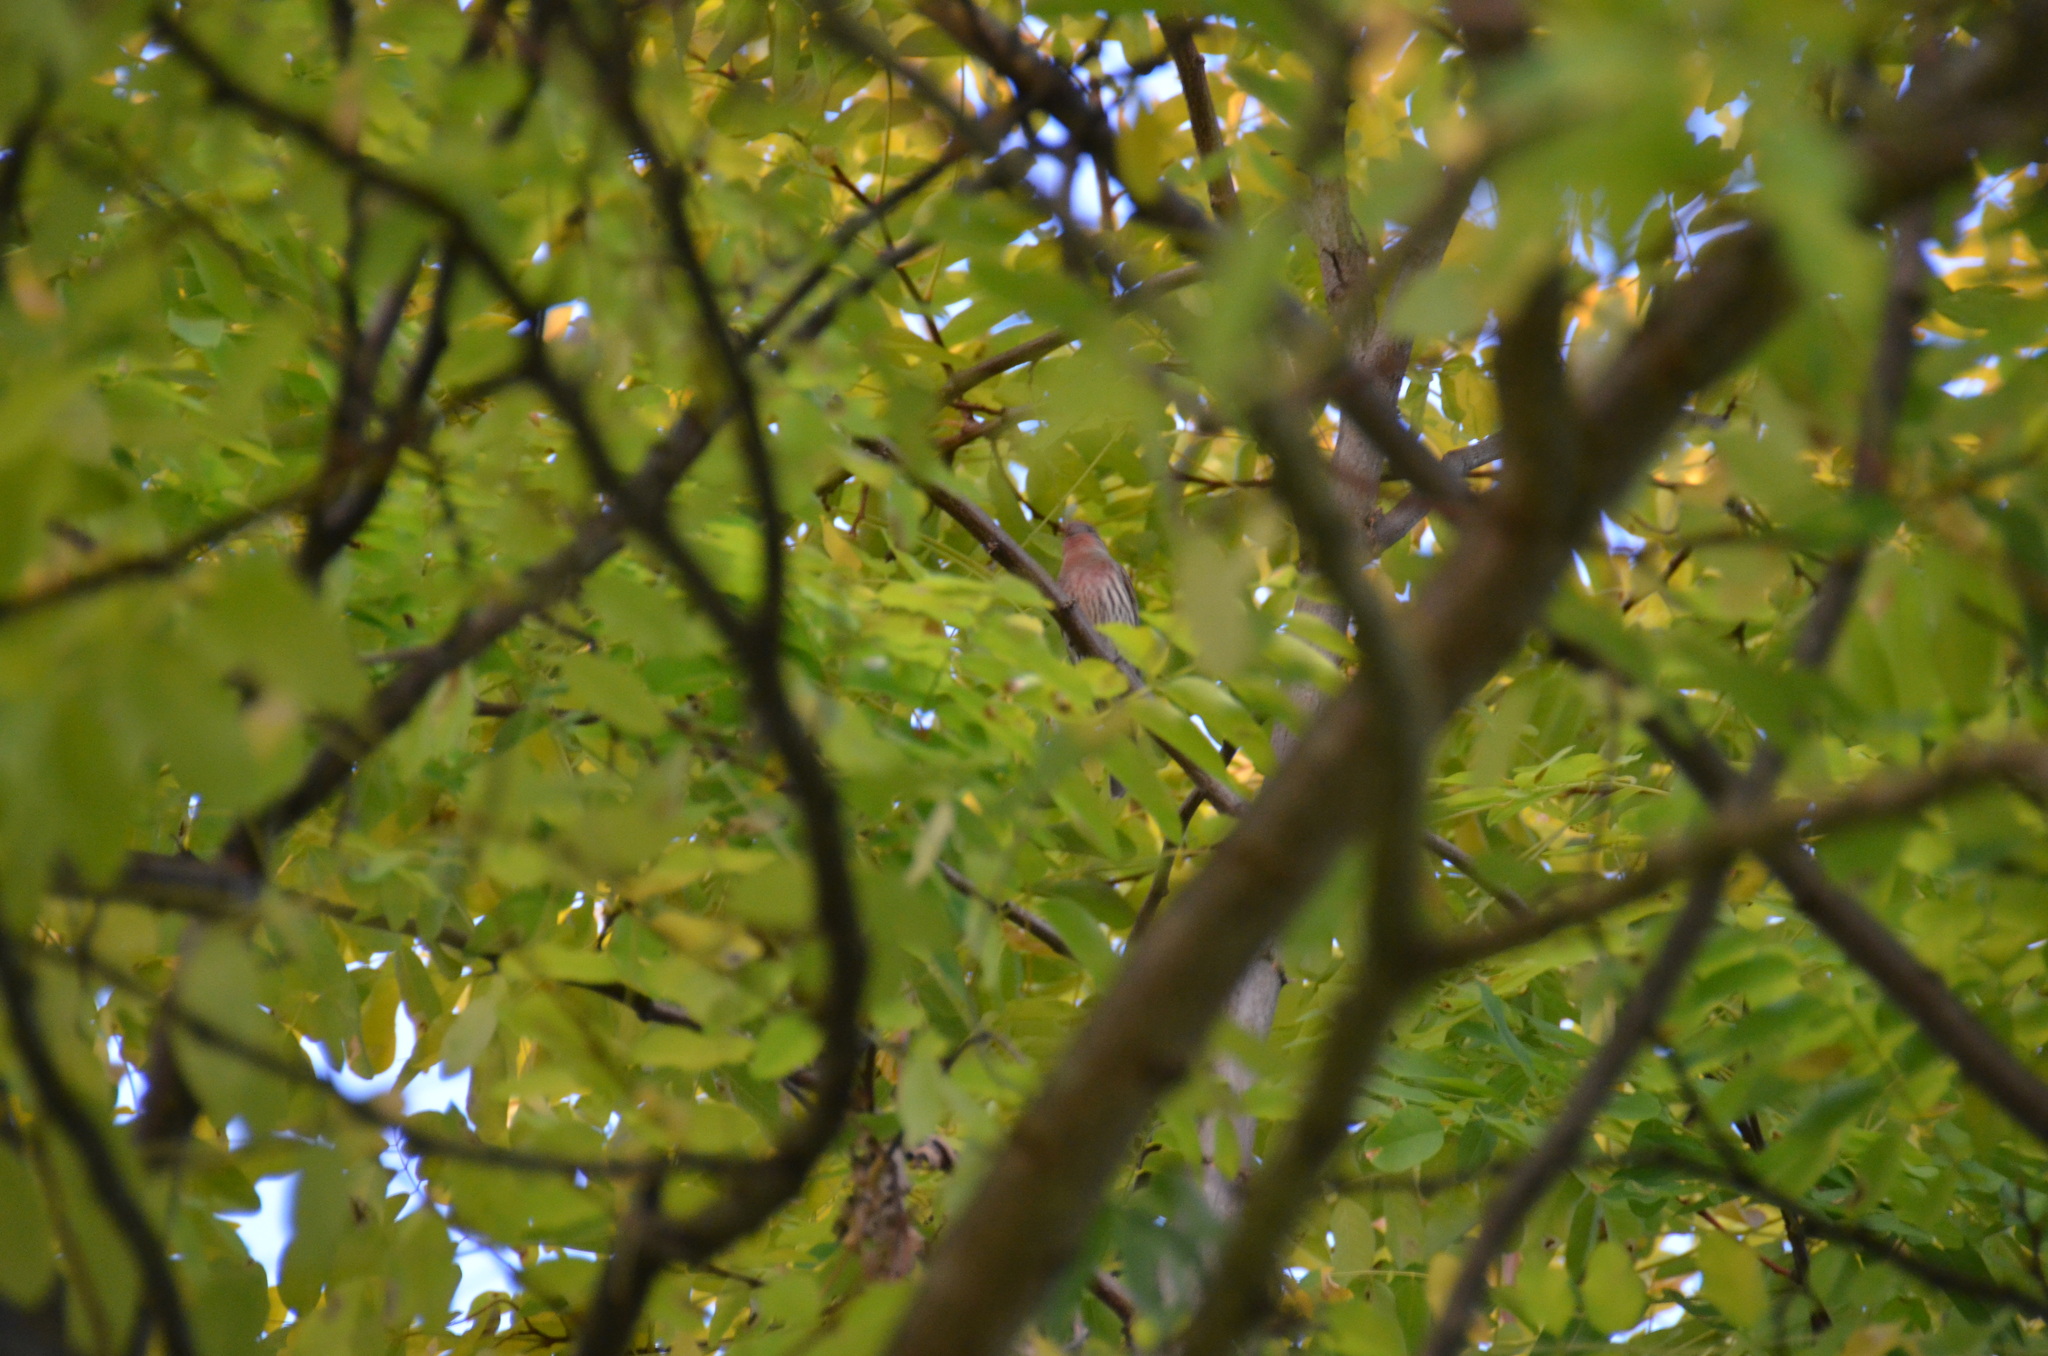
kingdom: Animalia
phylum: Chordata
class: Aves
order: Passeriformes
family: Fringillidae
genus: Haemorhous
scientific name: Haemorhous mexicanus
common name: House finch
